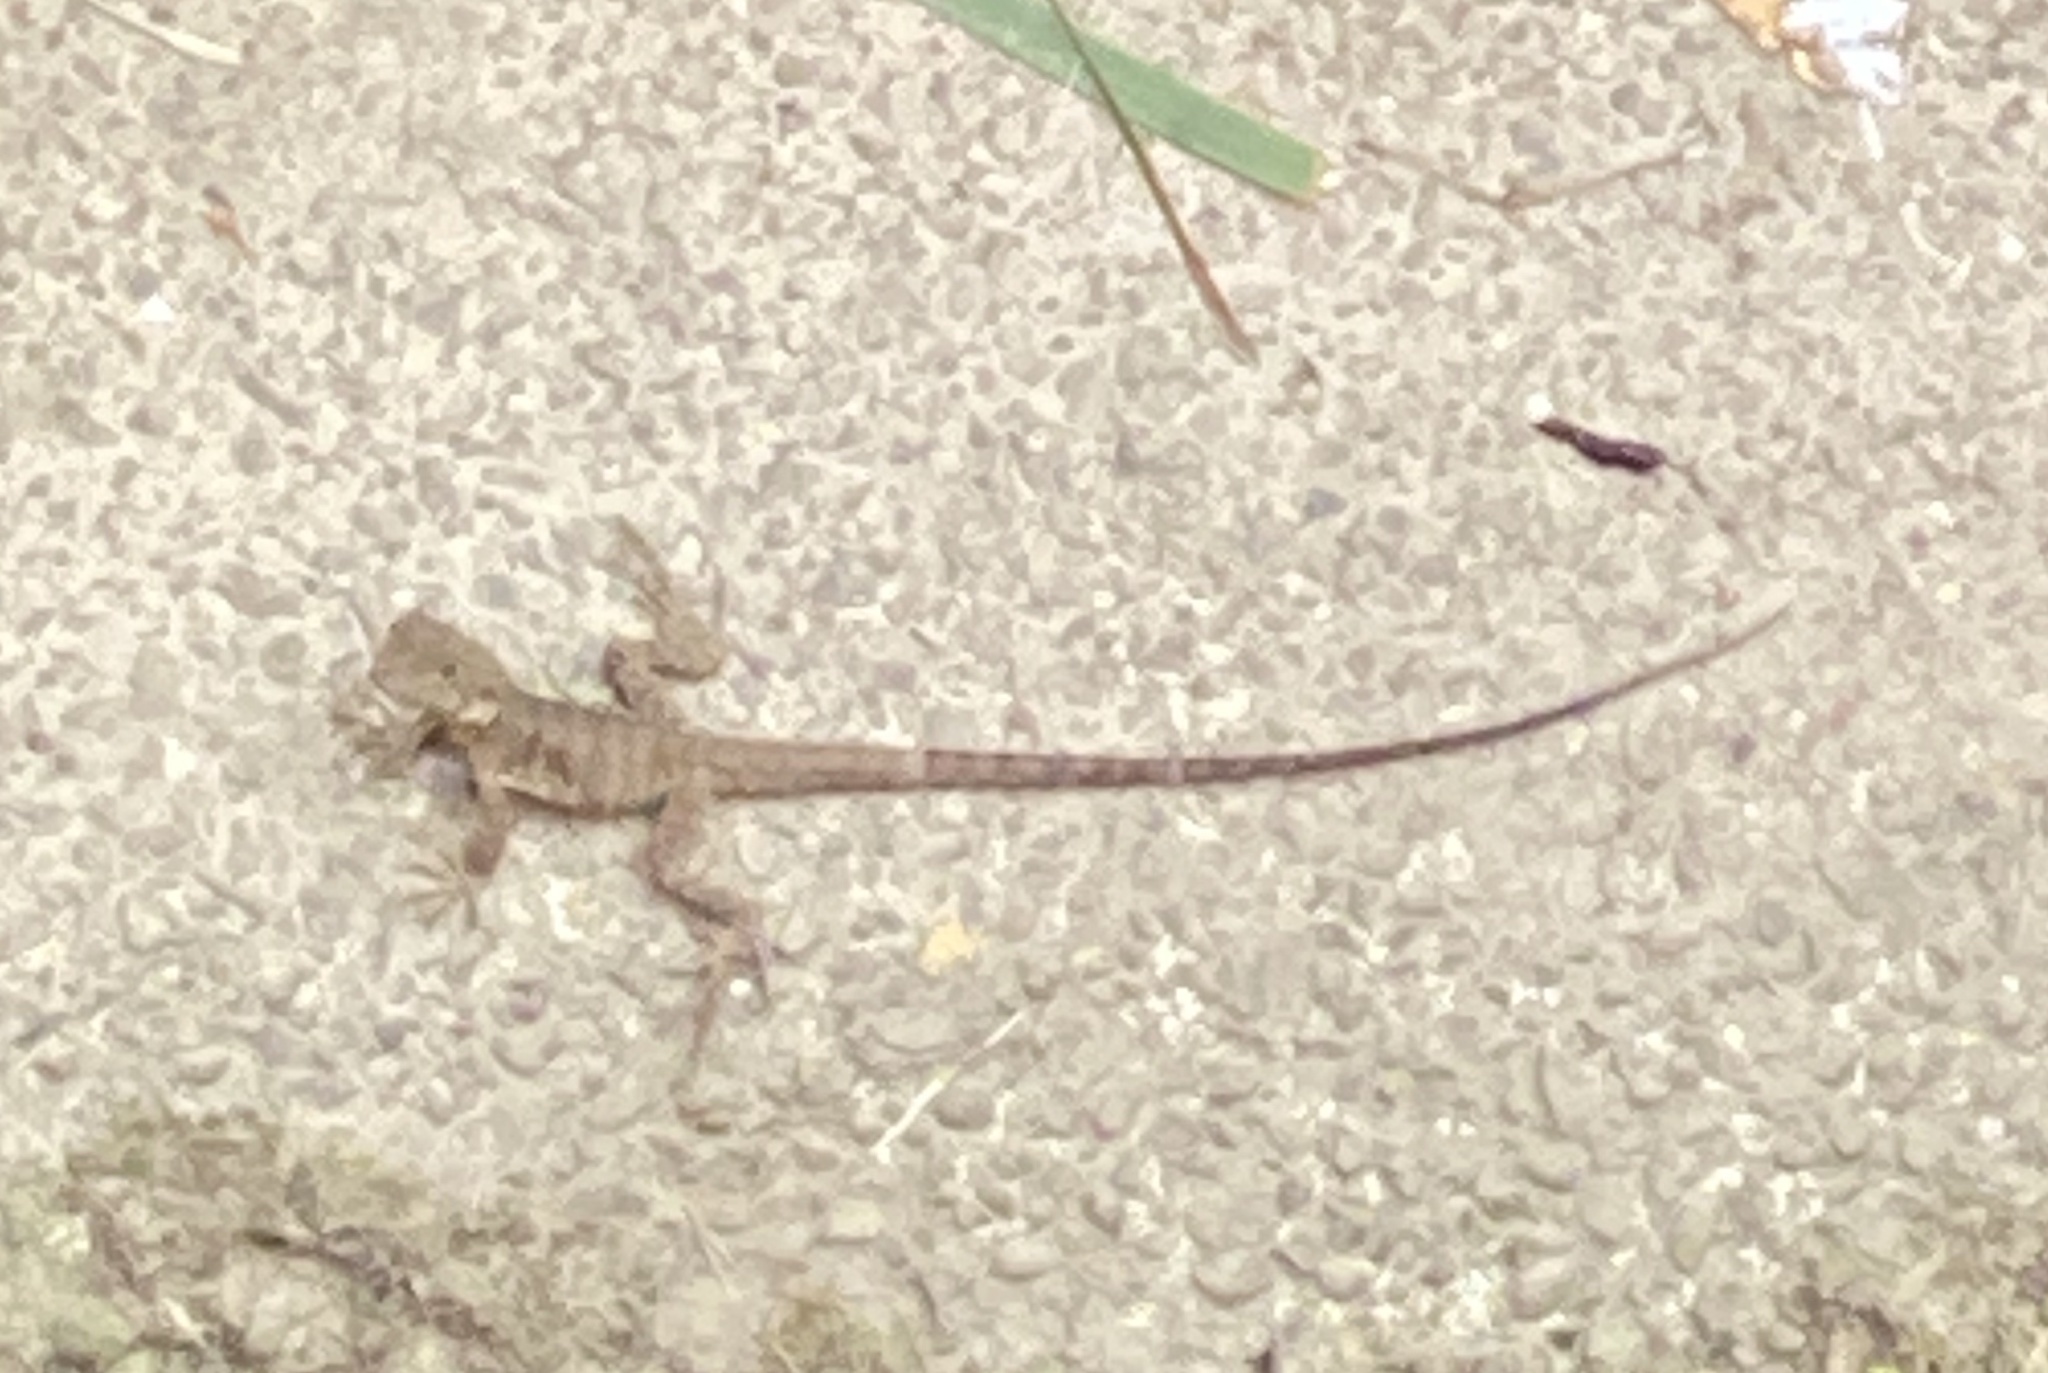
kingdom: Animalia
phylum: Chordata
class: Squamata
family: Agamidae
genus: Intellagama
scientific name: Intellagama lesueurii
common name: Eastern water dragon
